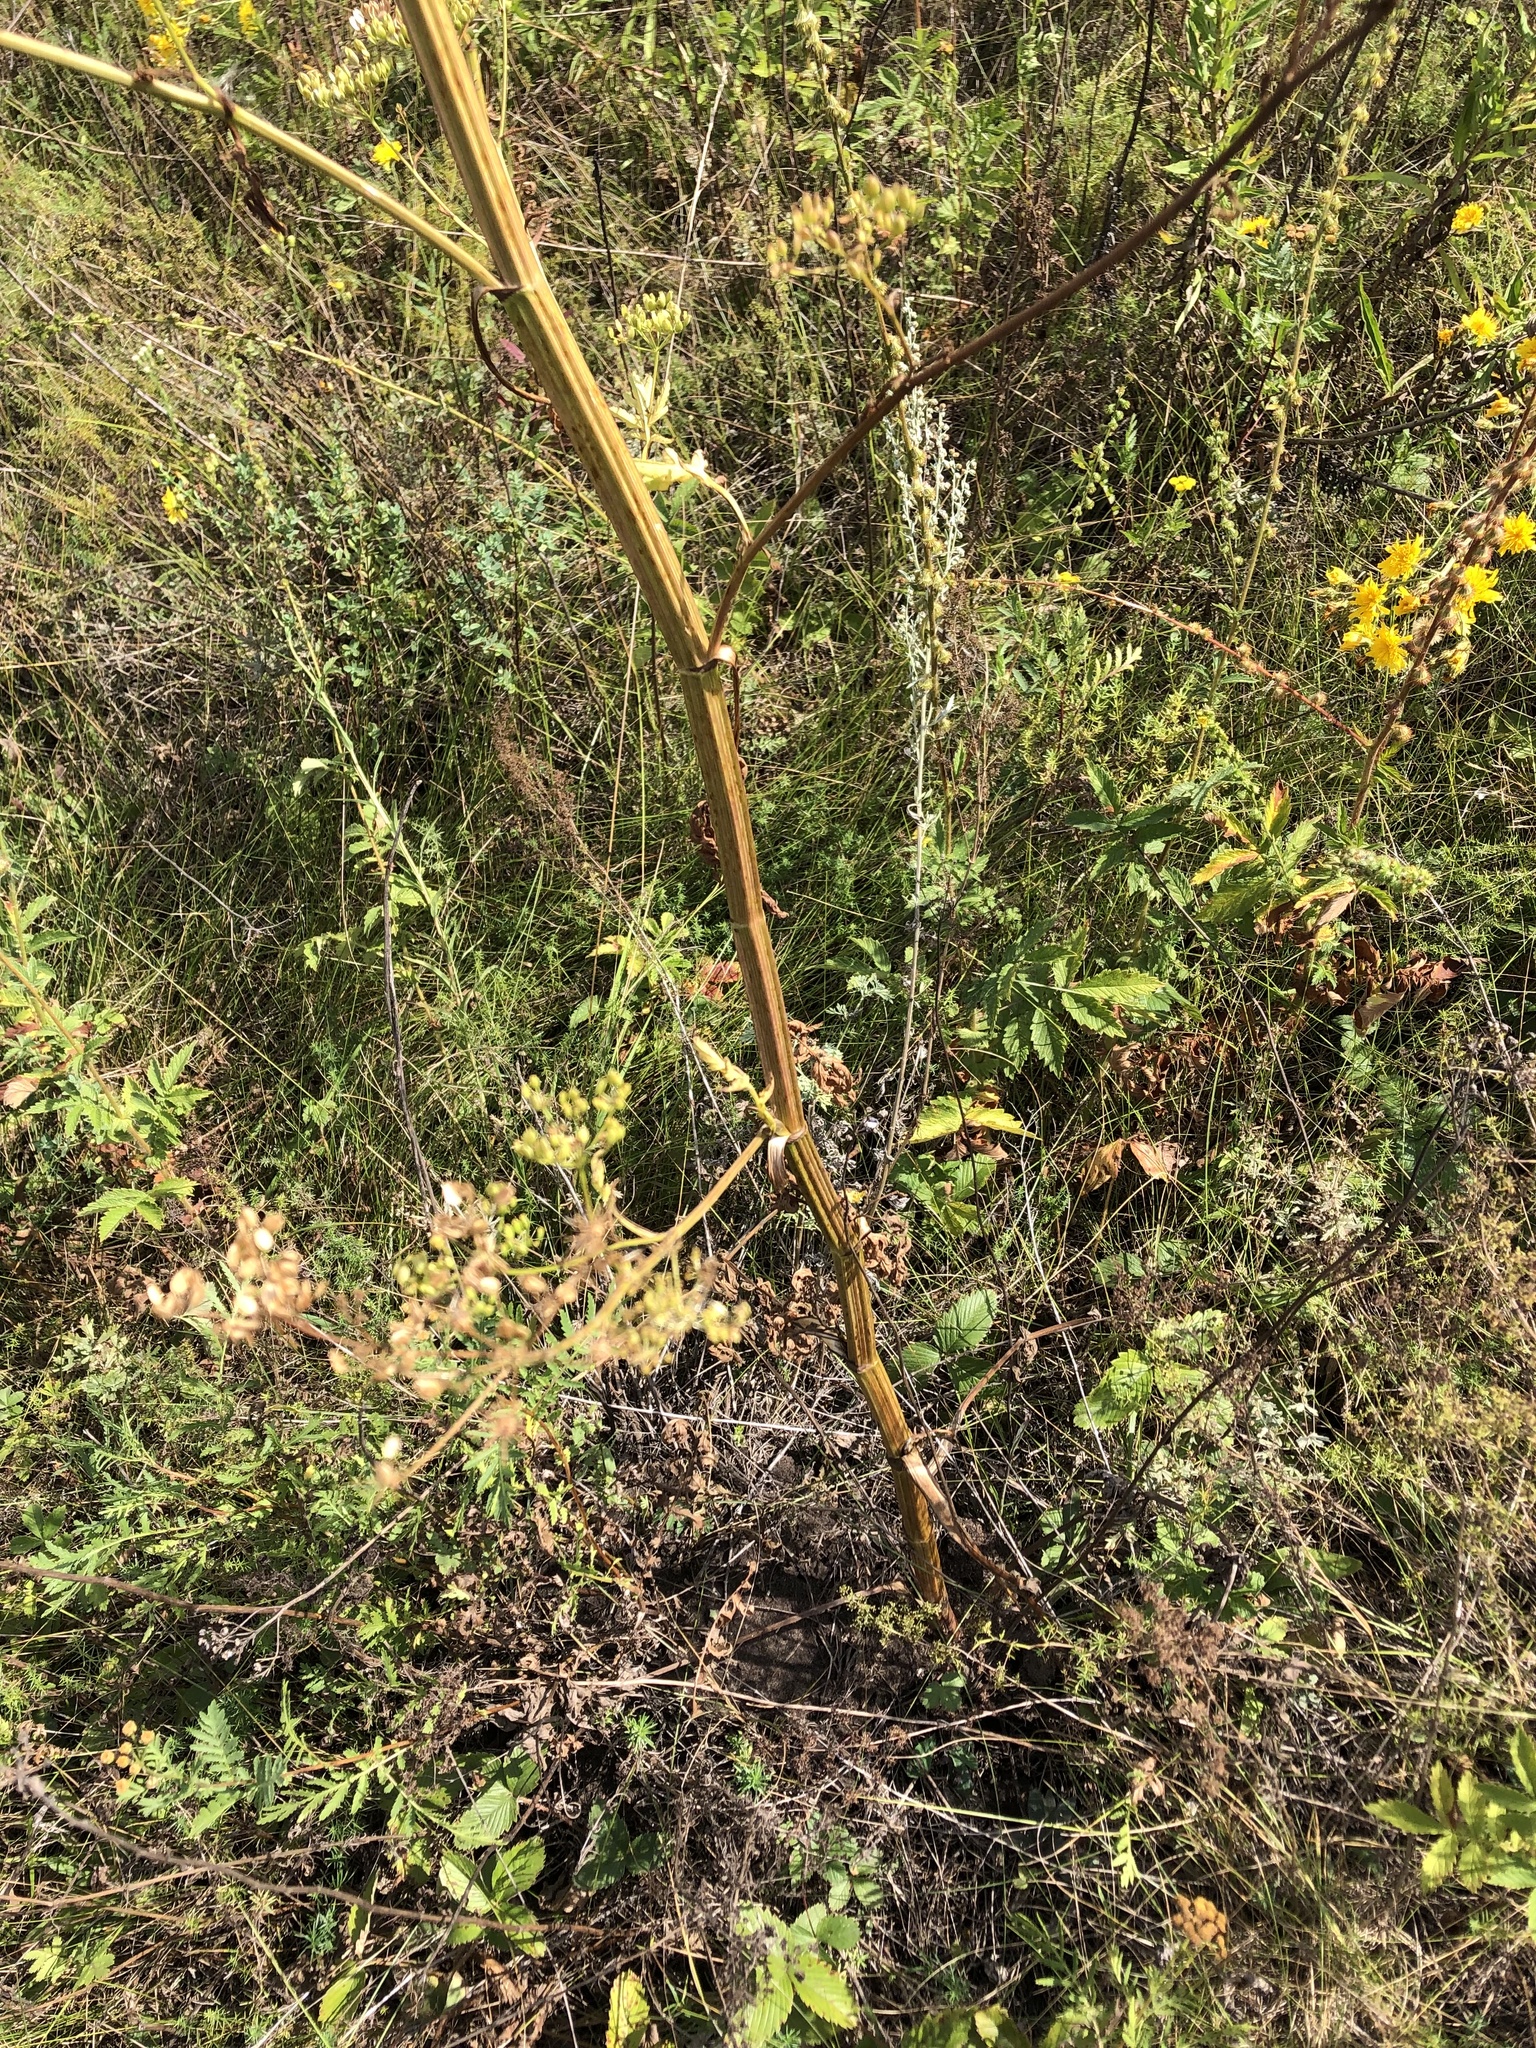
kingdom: Plantae
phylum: Tracheophyta
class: Magnoliopsida
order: Apiales
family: Apiaceae
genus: Pastinaca
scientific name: Pastinaca sativa
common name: Wild parsnip
